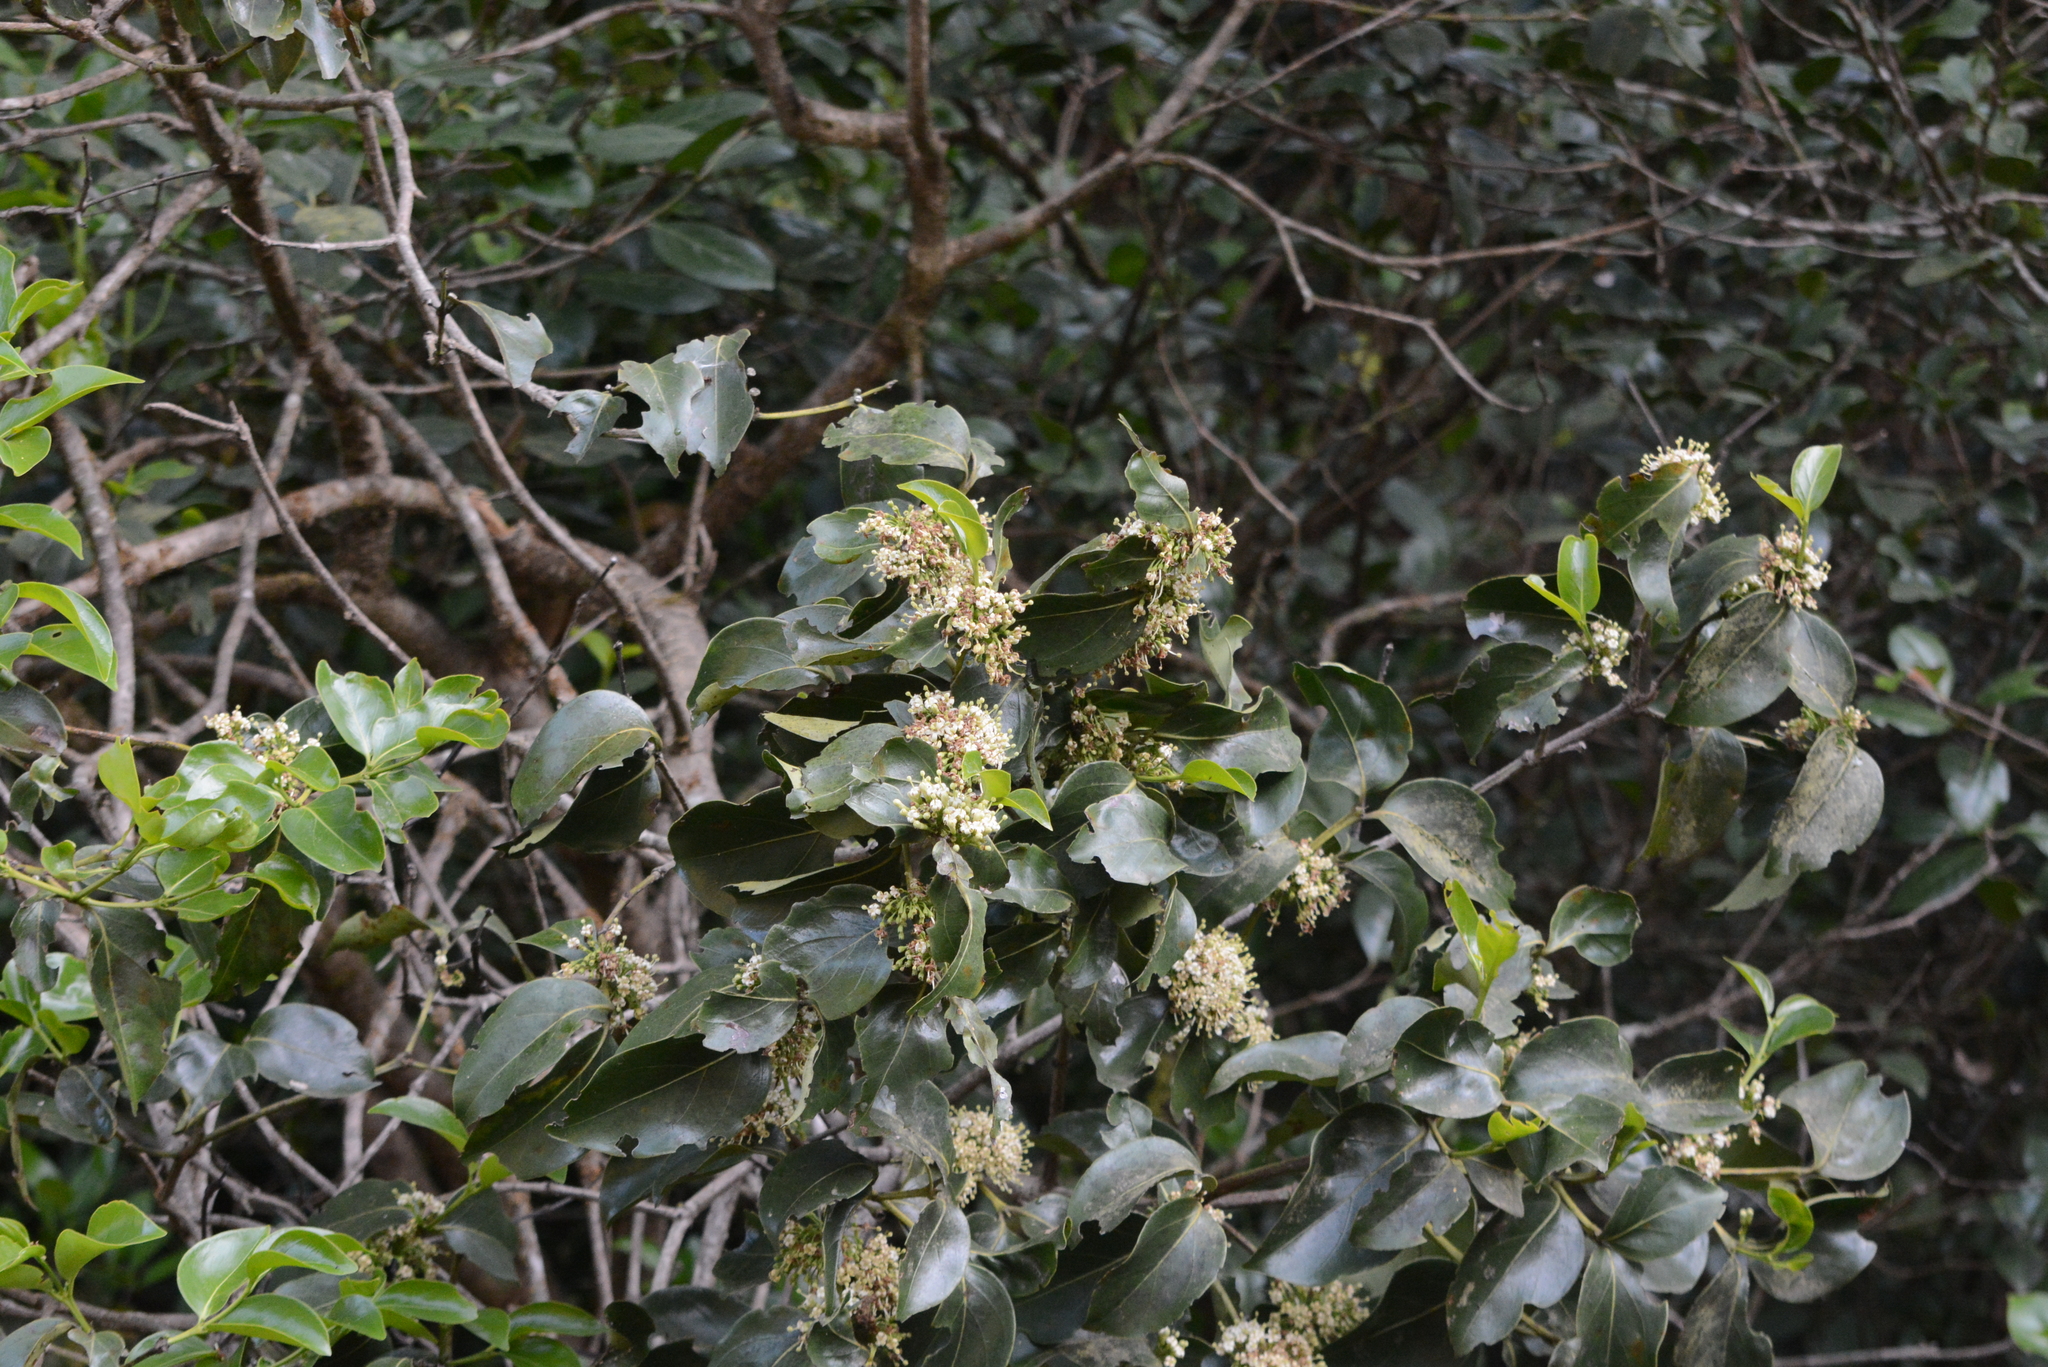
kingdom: Plantae
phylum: Tracheophyta
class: Magnoliopsida
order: Gentianales
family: Rubiaceae
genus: Psydrax
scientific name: Psydrax umbellatus
